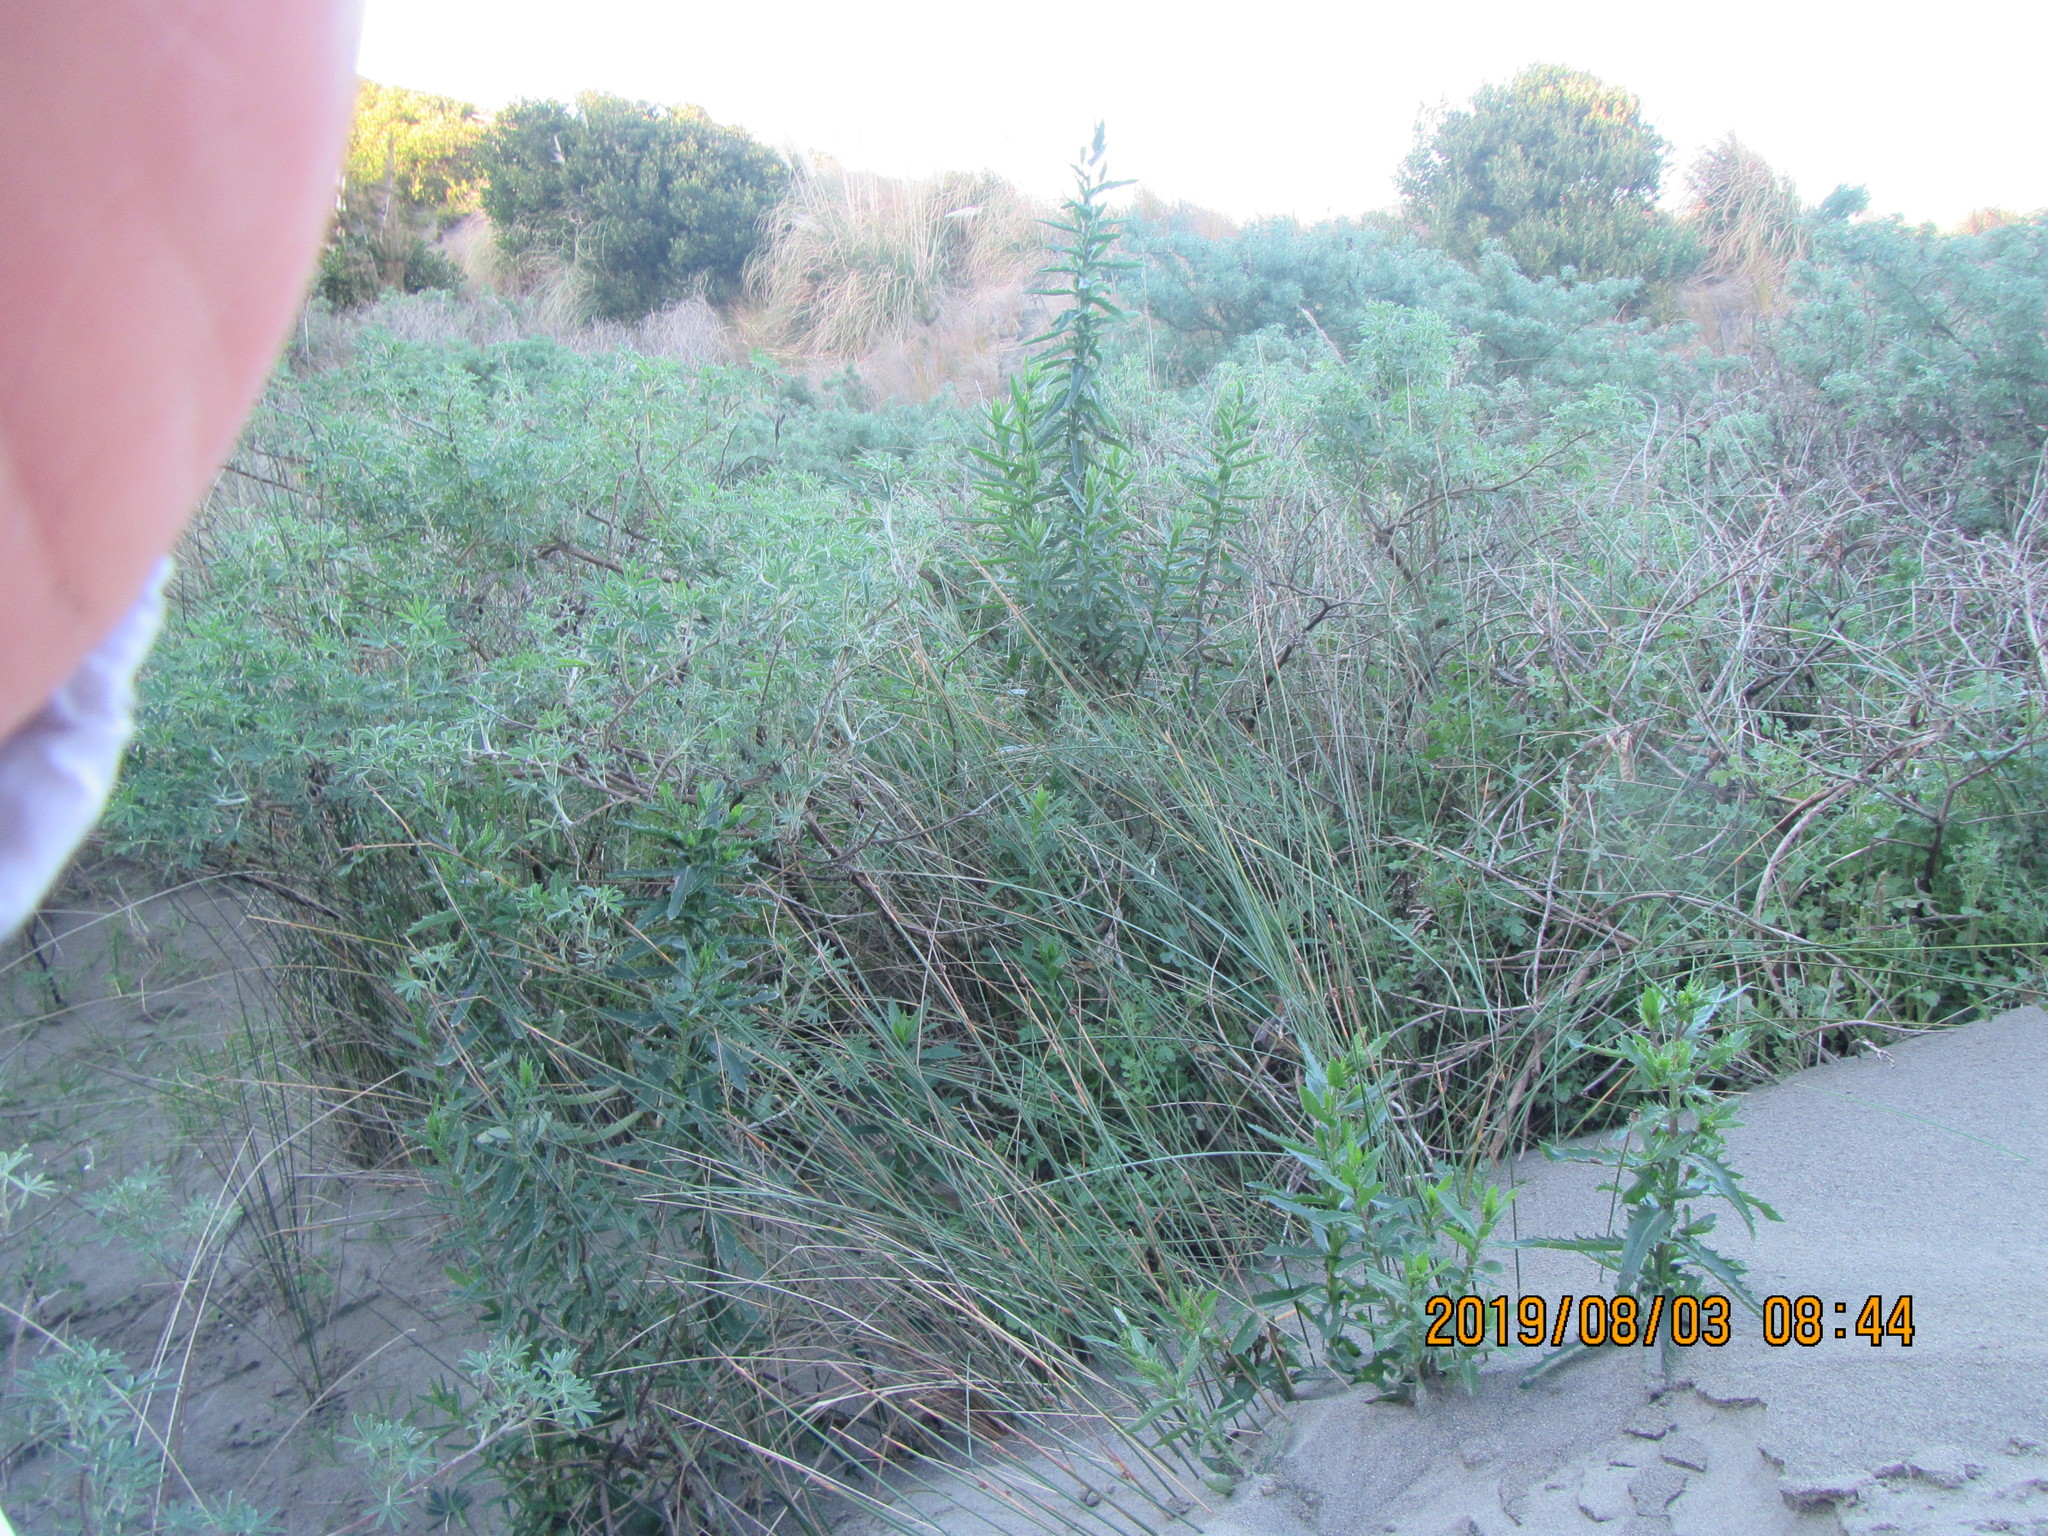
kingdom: Plantae
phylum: Tracheophyta
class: Magnoliopsida
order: Asterales
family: Asteraceae
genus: Senecio
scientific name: Senecio glastifolius
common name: Woad-leaved ragwort
